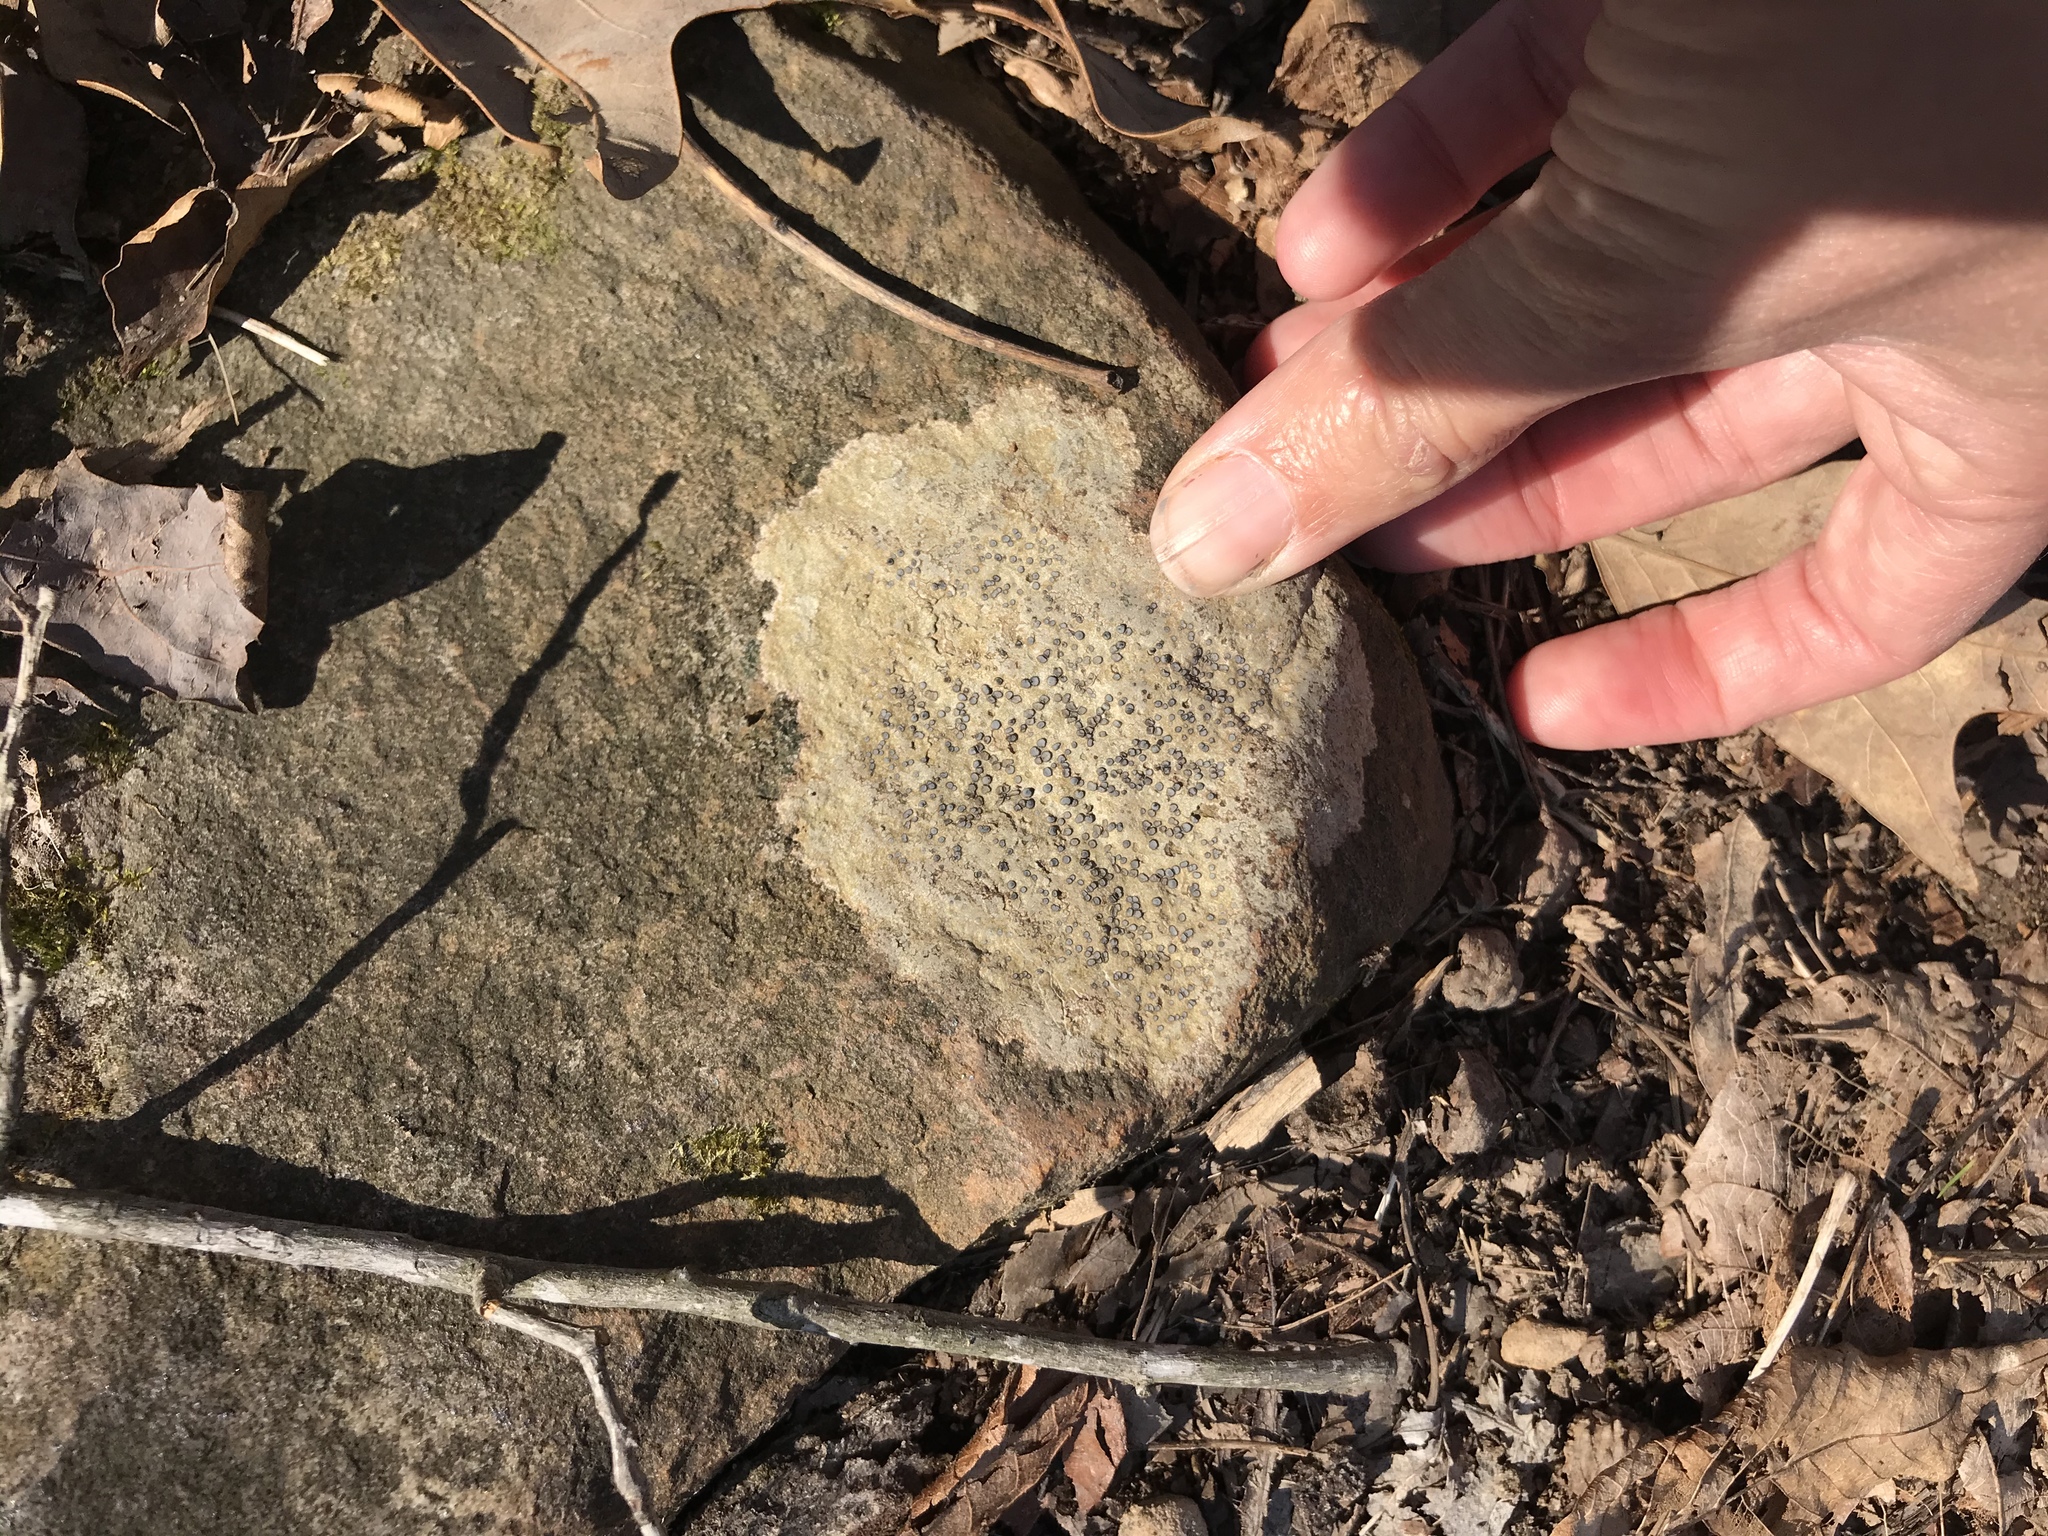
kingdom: Fungi
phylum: Ascomycota
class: Lecanoromycetes
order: Lecideales
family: Lecideaceae
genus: Porpidia
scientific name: Porpidia albocaerulescens
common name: Smokey-eyed boulder lichen
